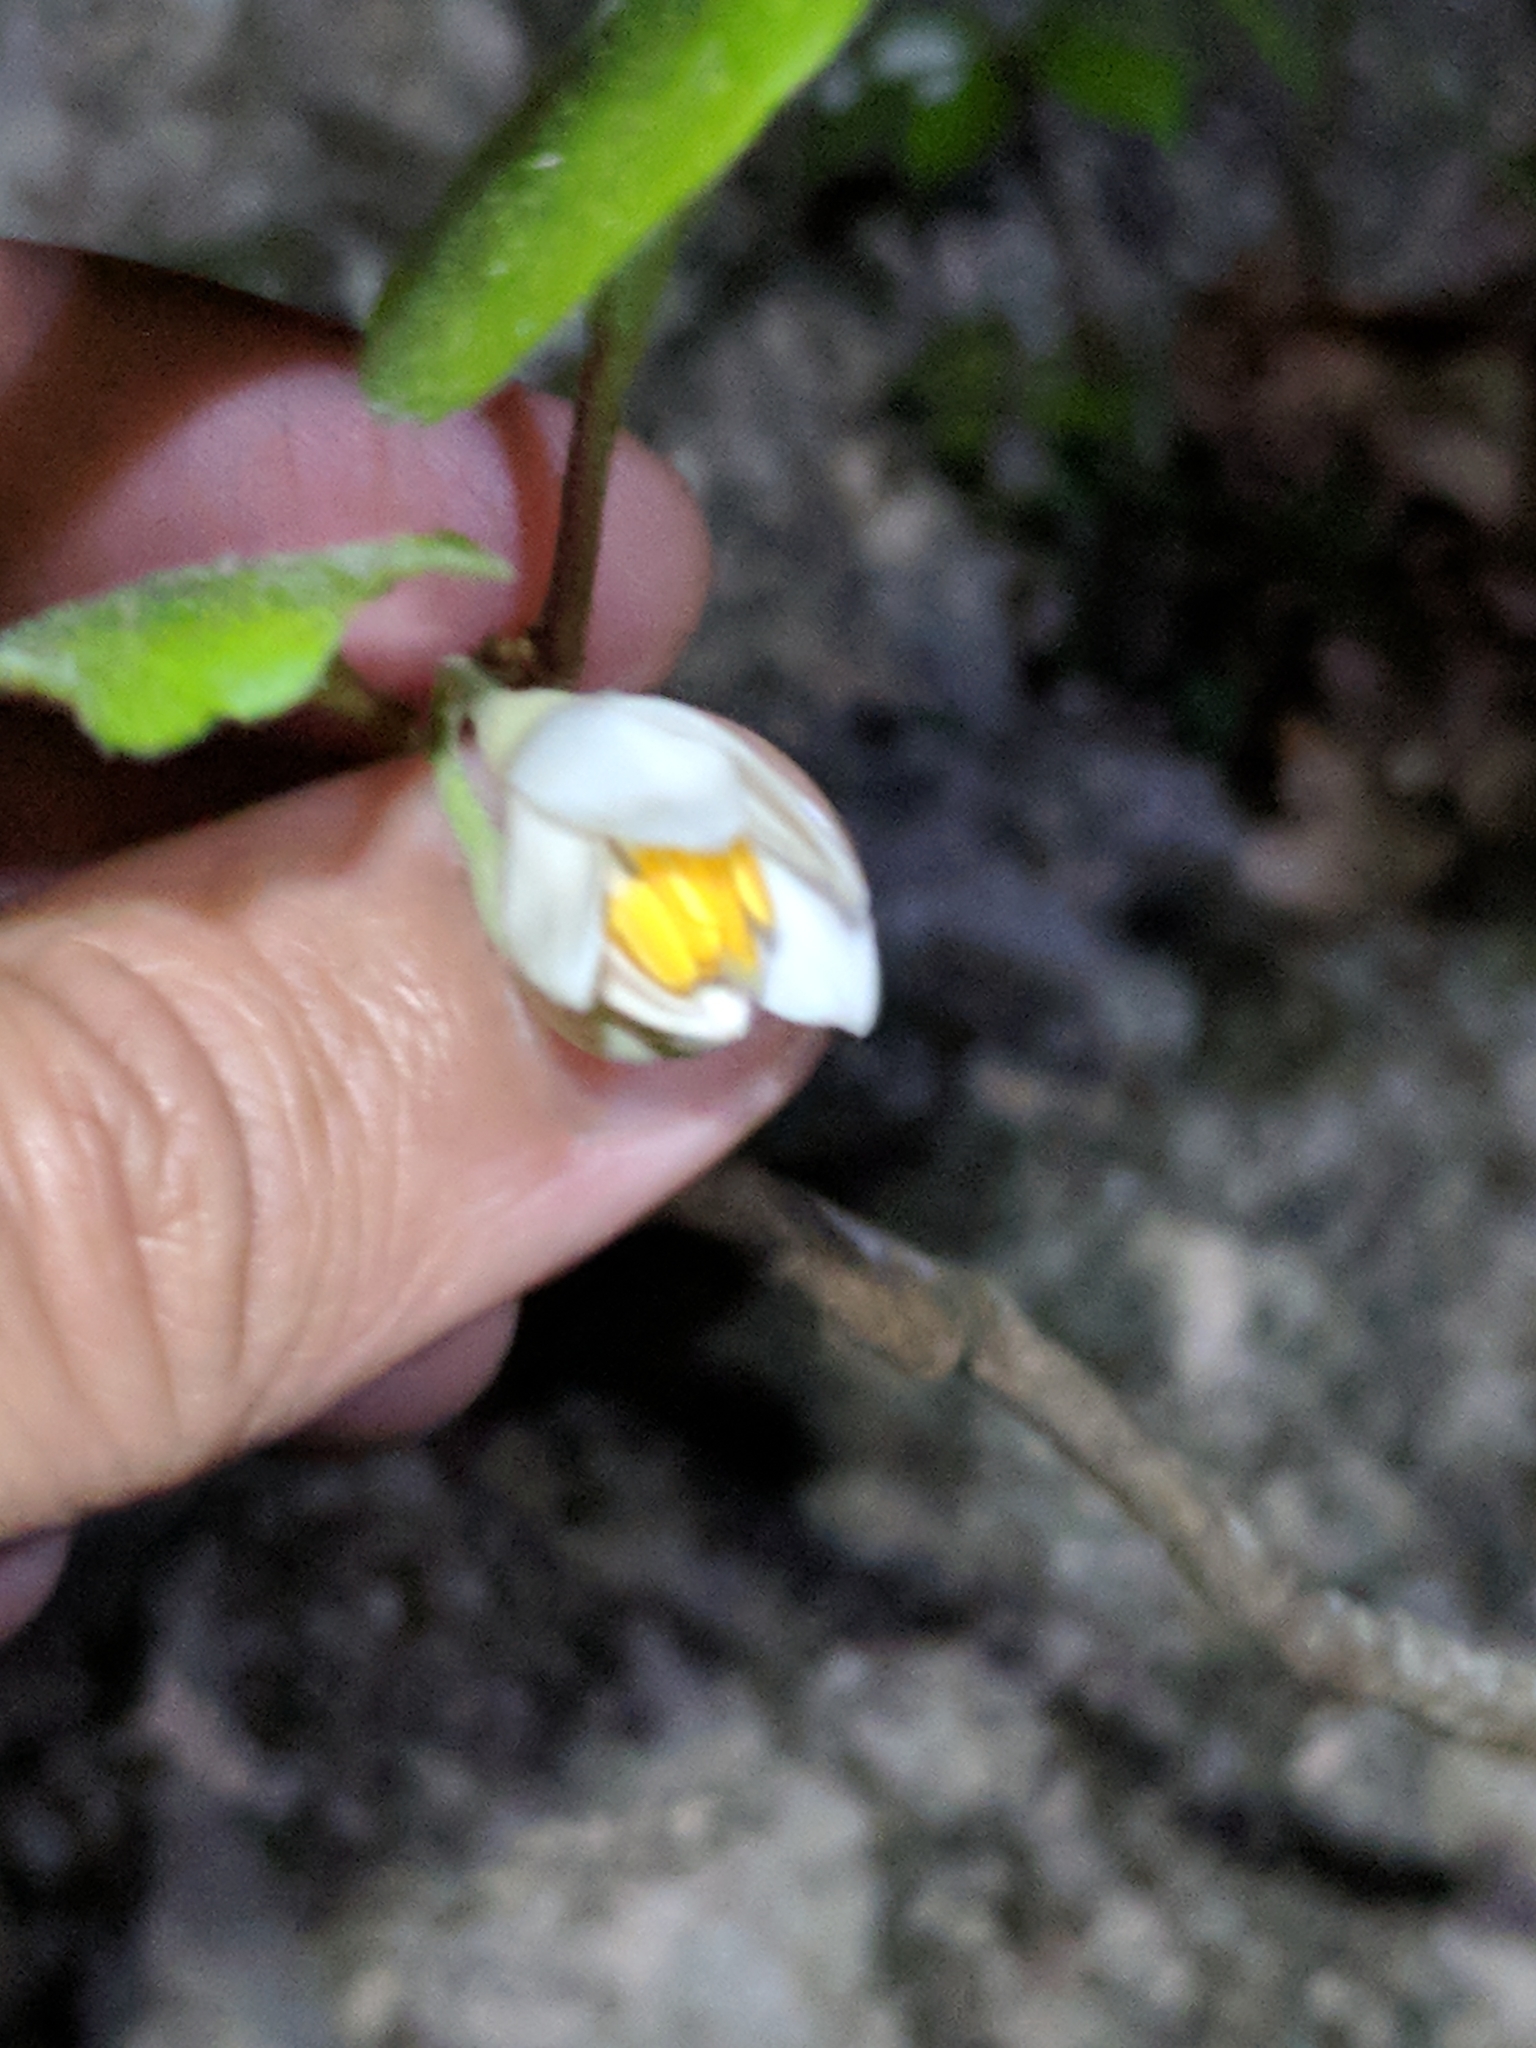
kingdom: Plantae
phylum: Tracheophyta
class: Magnoliopsida
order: Ericales
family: Styracaceae
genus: Styrax
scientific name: Styrax platanifolius
